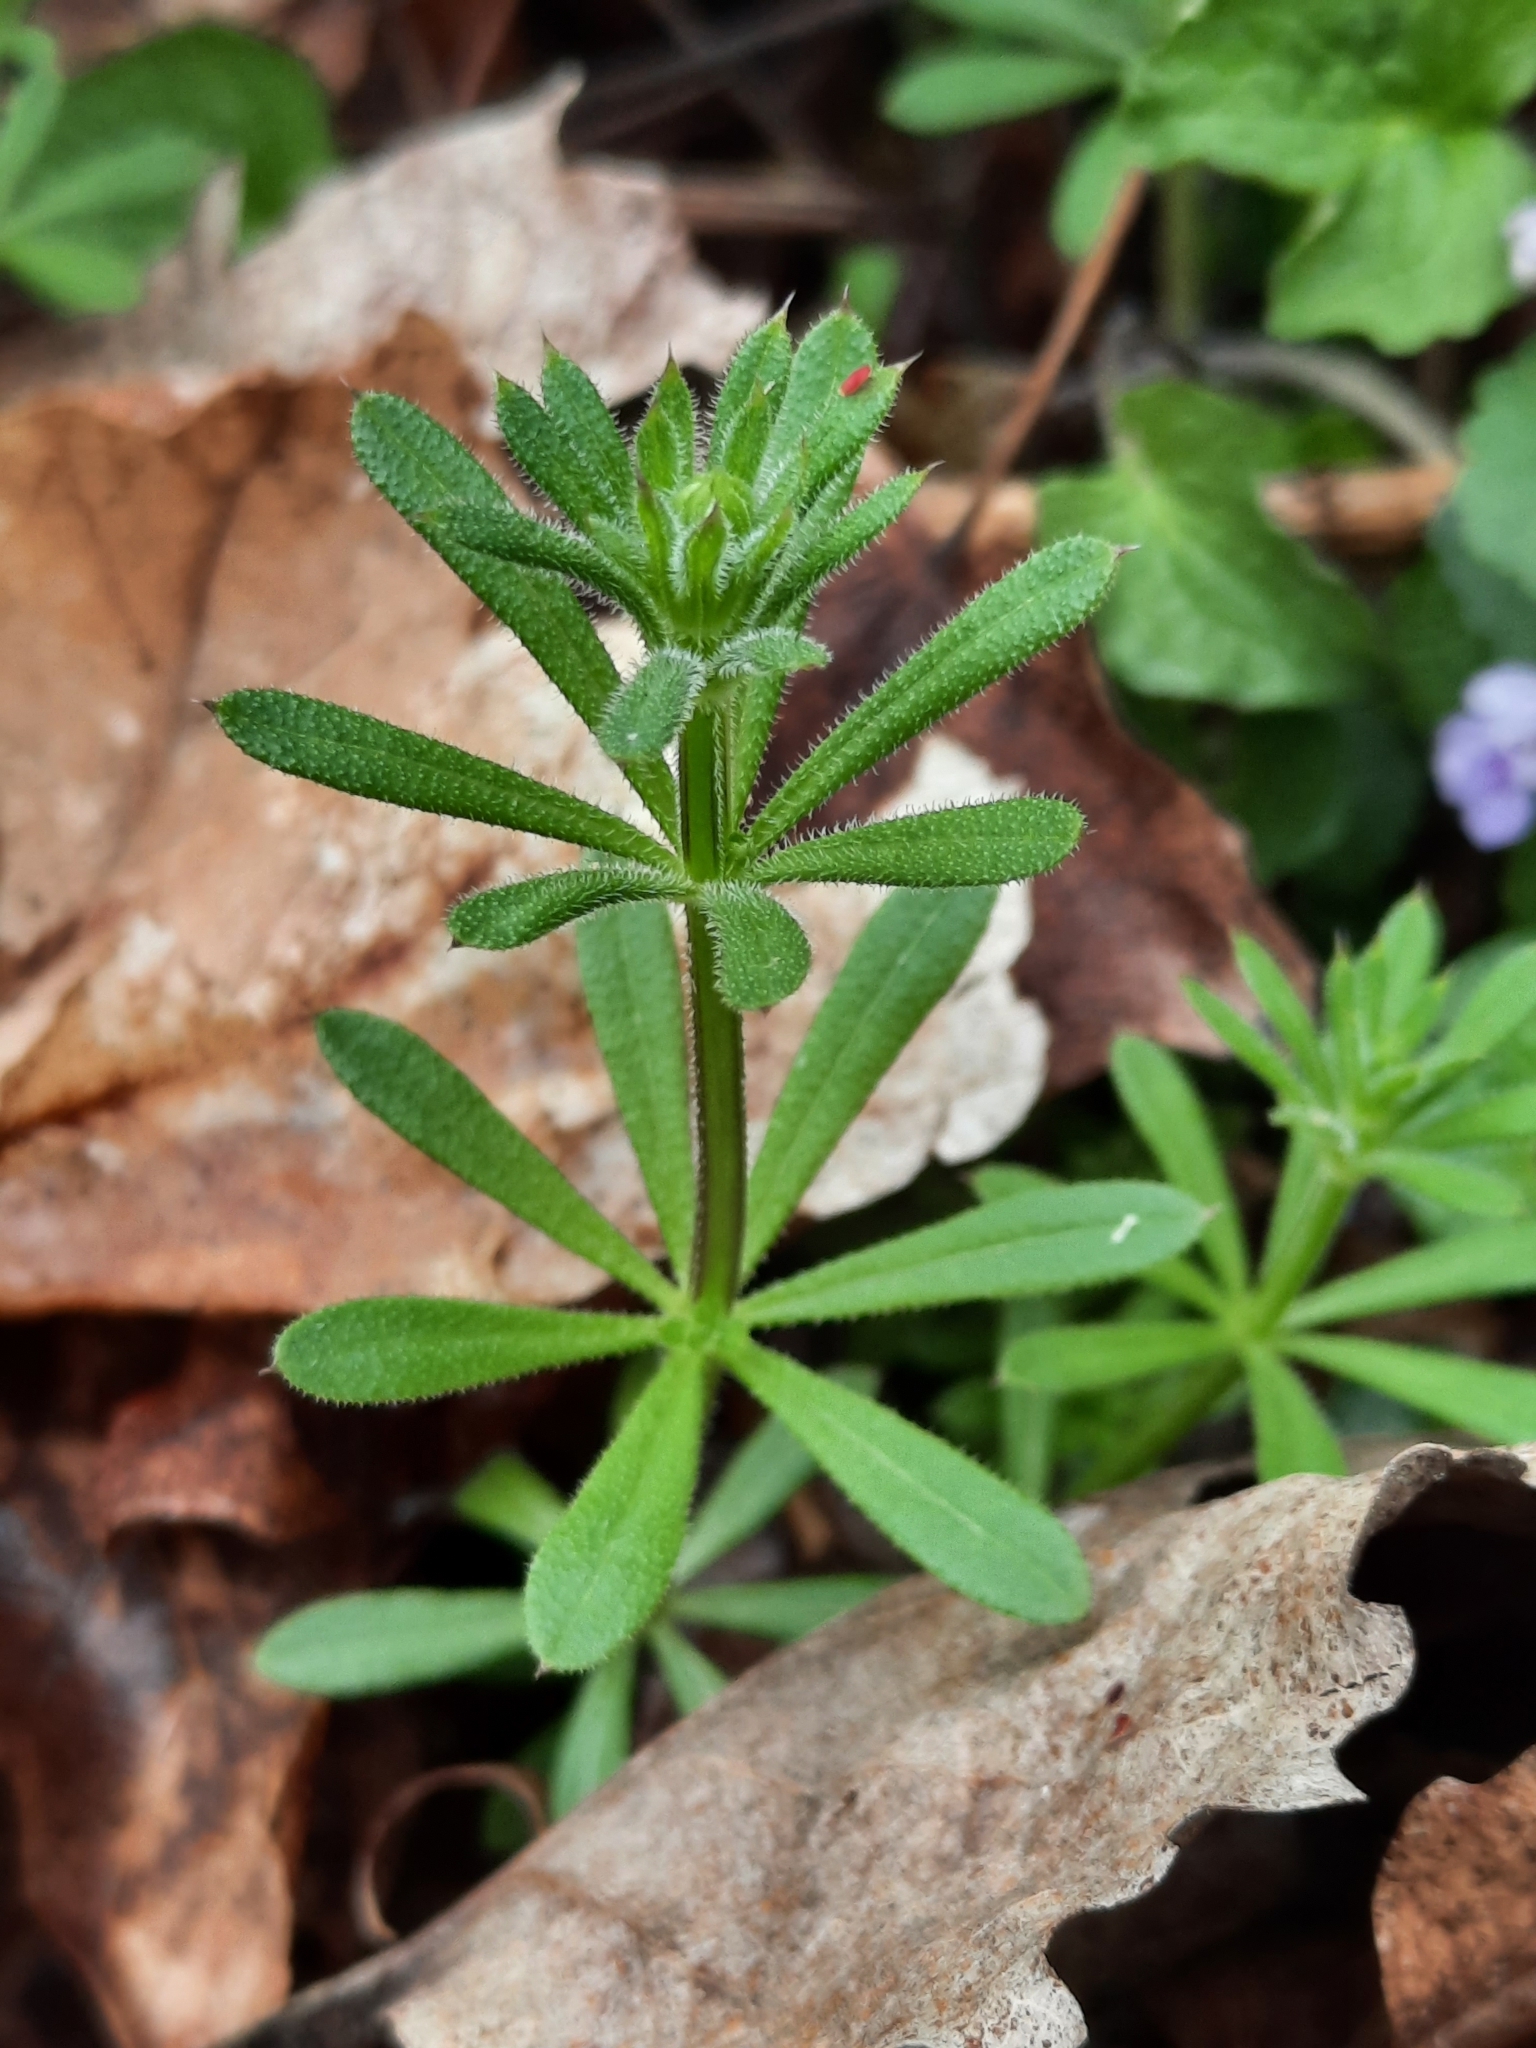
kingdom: Plantae
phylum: Tracheophyta
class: Magnoliopsida
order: Gentianales
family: Rubiaceae
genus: Galium
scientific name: Galium aparine
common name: Cleavers
